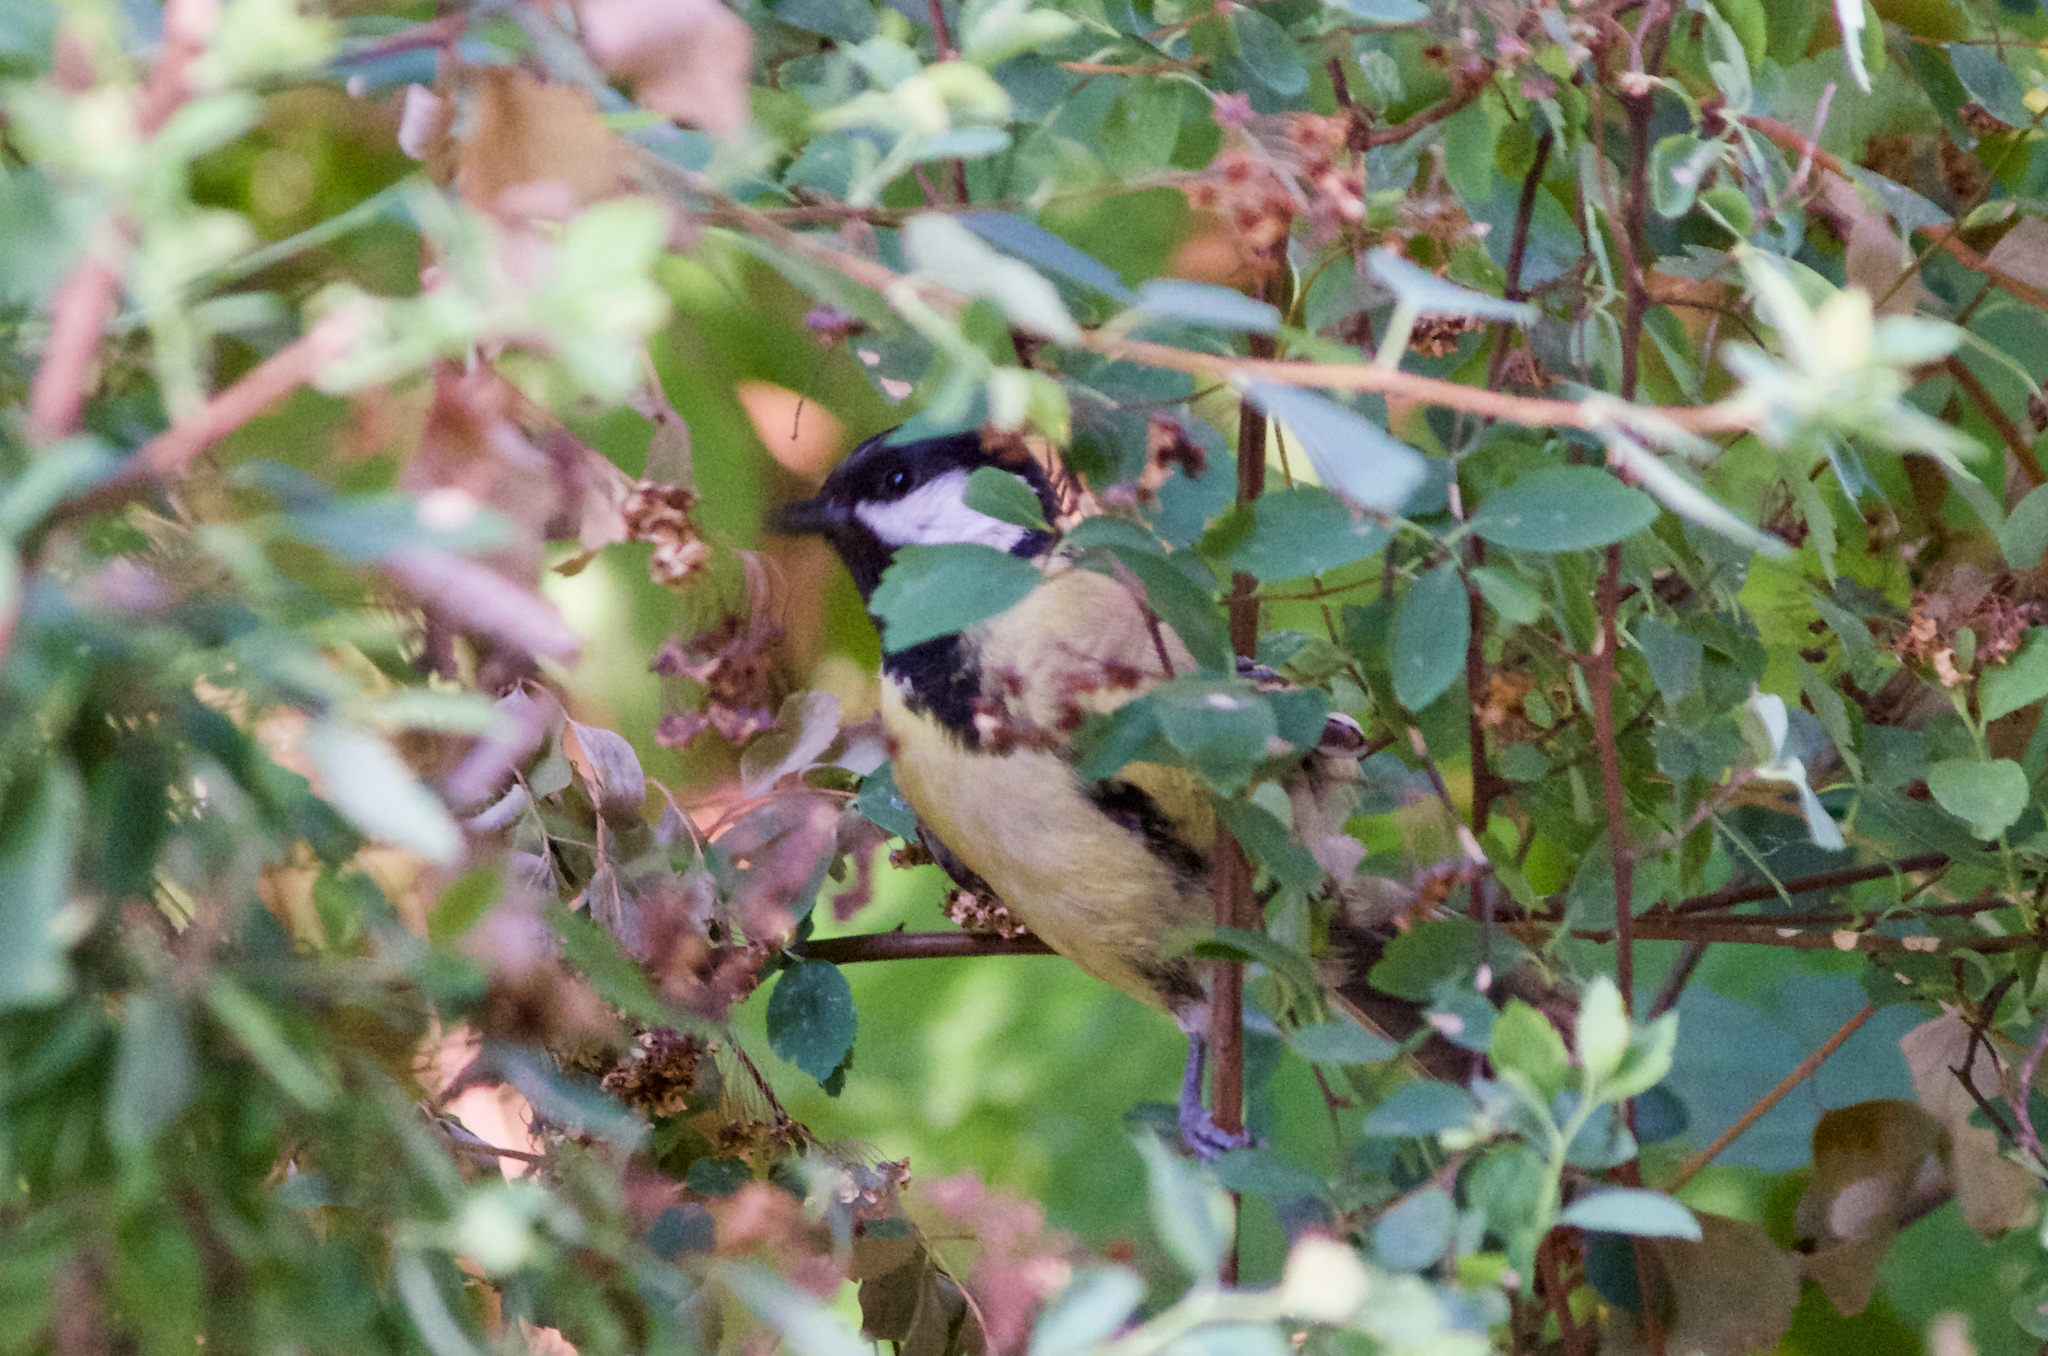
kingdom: Animalia
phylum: Chordata
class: Aves
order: Passeriformes
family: Paridae
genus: Parus
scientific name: Parus major
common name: Great tit
